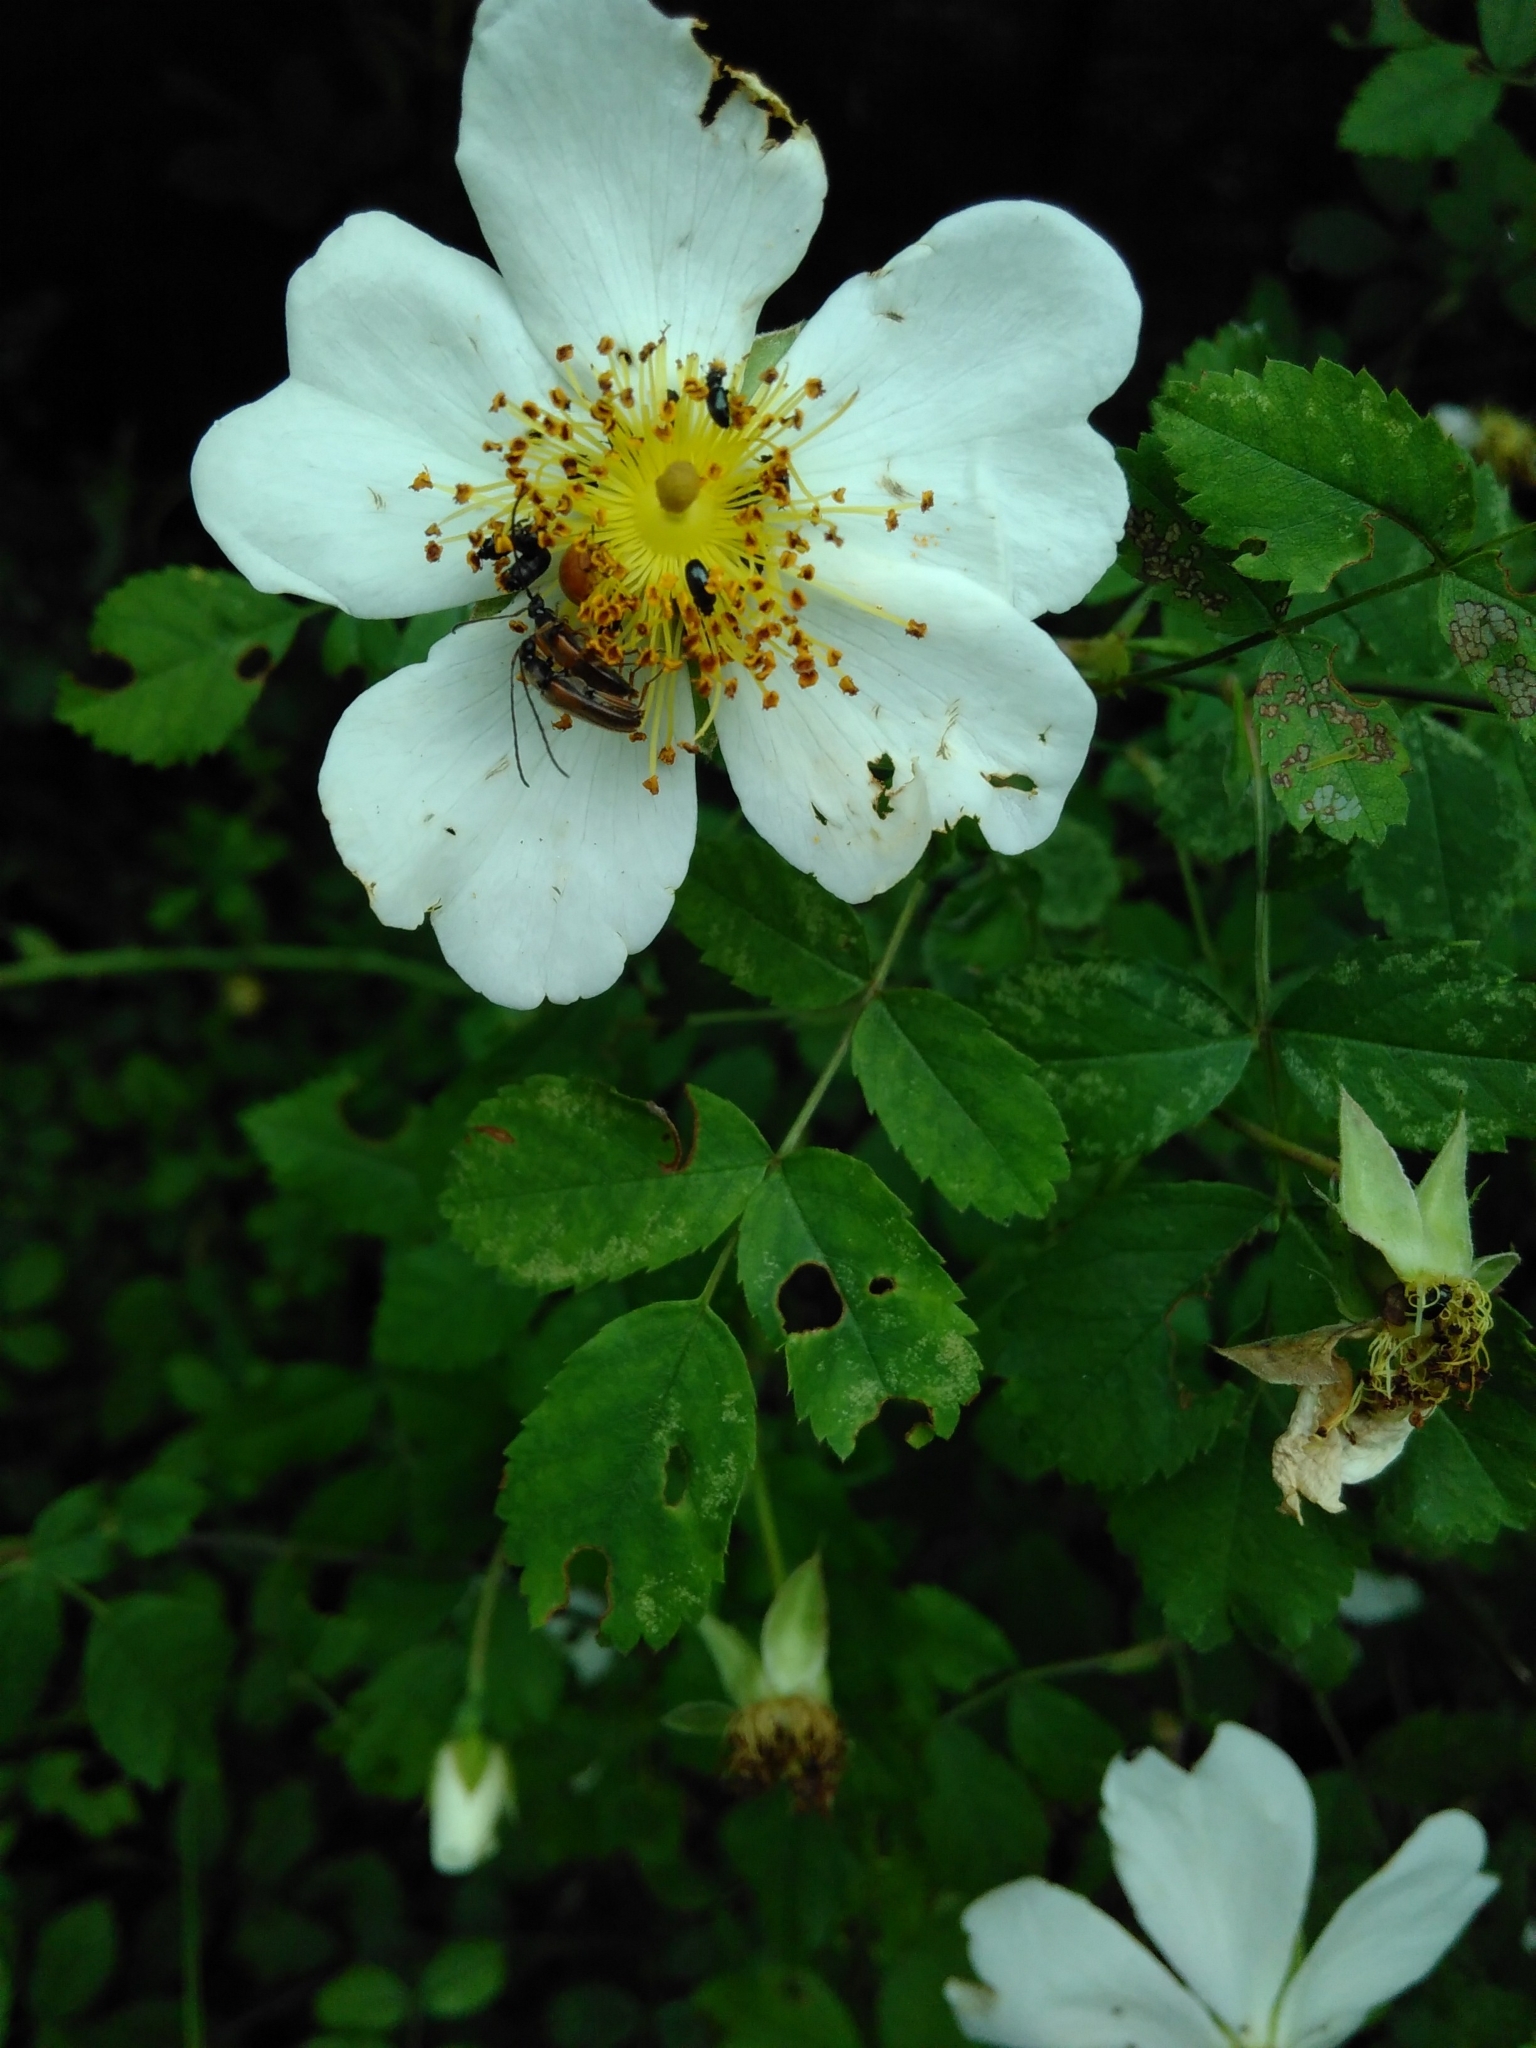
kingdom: Animalia
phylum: Arthropoda
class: Insecta
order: Coleoptera
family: Cerambycidae
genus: Alosterna
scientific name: Alosterna tabacicolor
